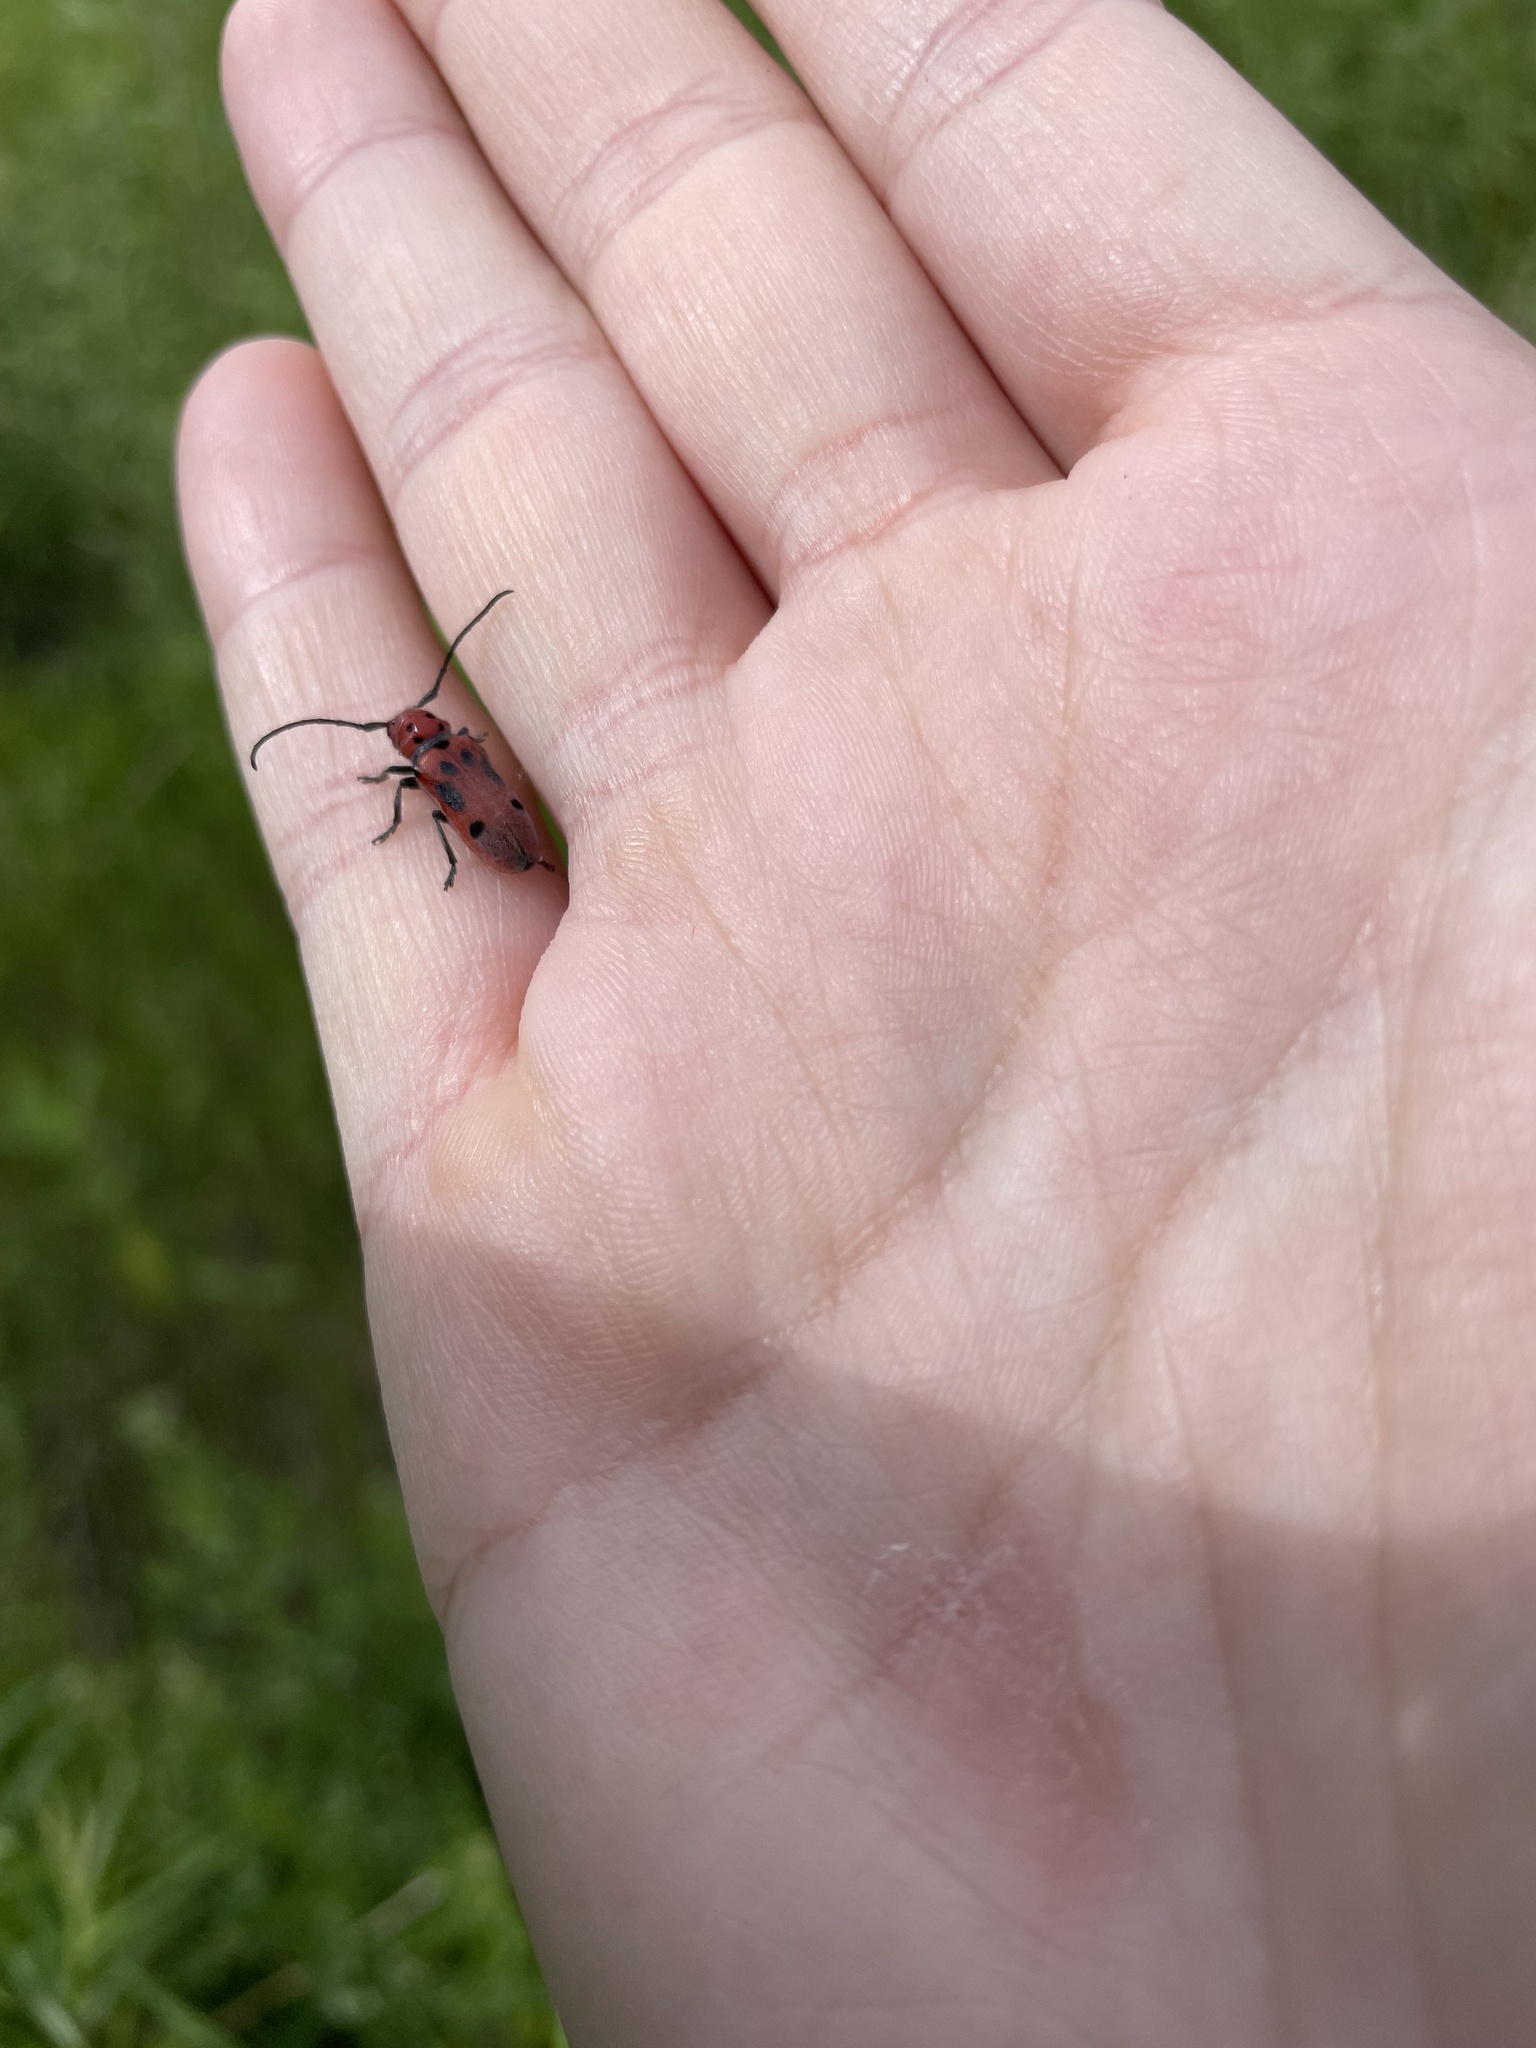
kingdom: Animalia
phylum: Arthropoda
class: Insecta
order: Coleoptera
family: Cerambycidae
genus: Tetraopes
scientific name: Tetraopes tetrophthalmus
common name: Red milkweed beetle
